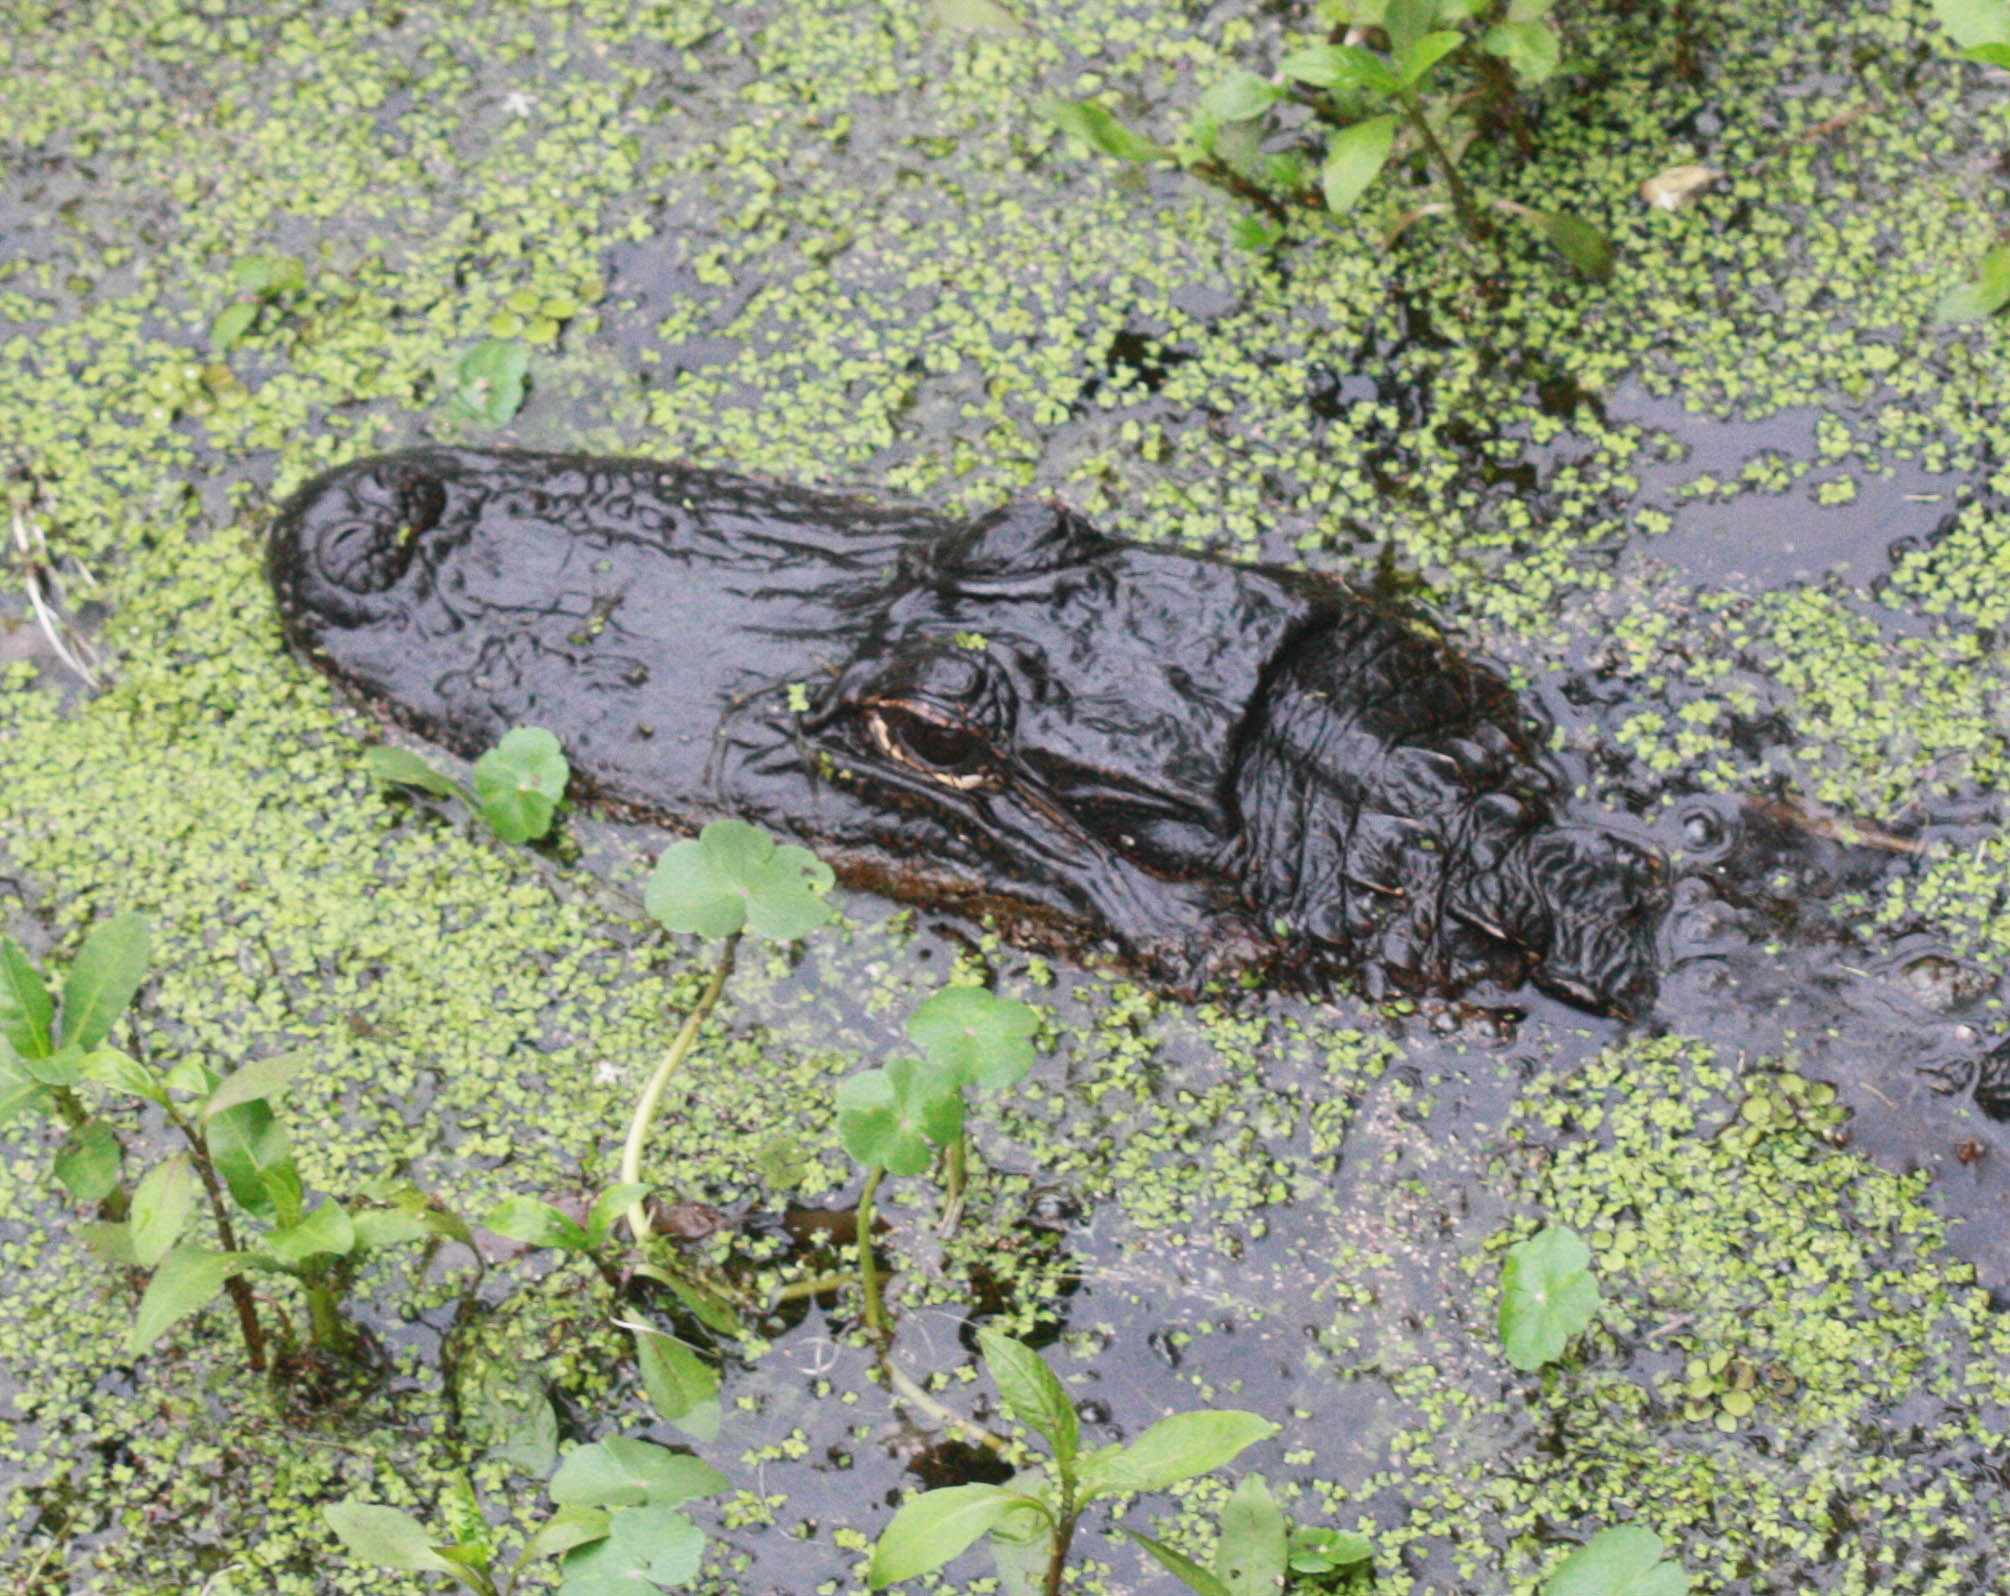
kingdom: Animalia
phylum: Chordata
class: Crocodylia
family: Alligatoridae
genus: Alligator
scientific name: Alligator mississippiensis
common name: American alligator
